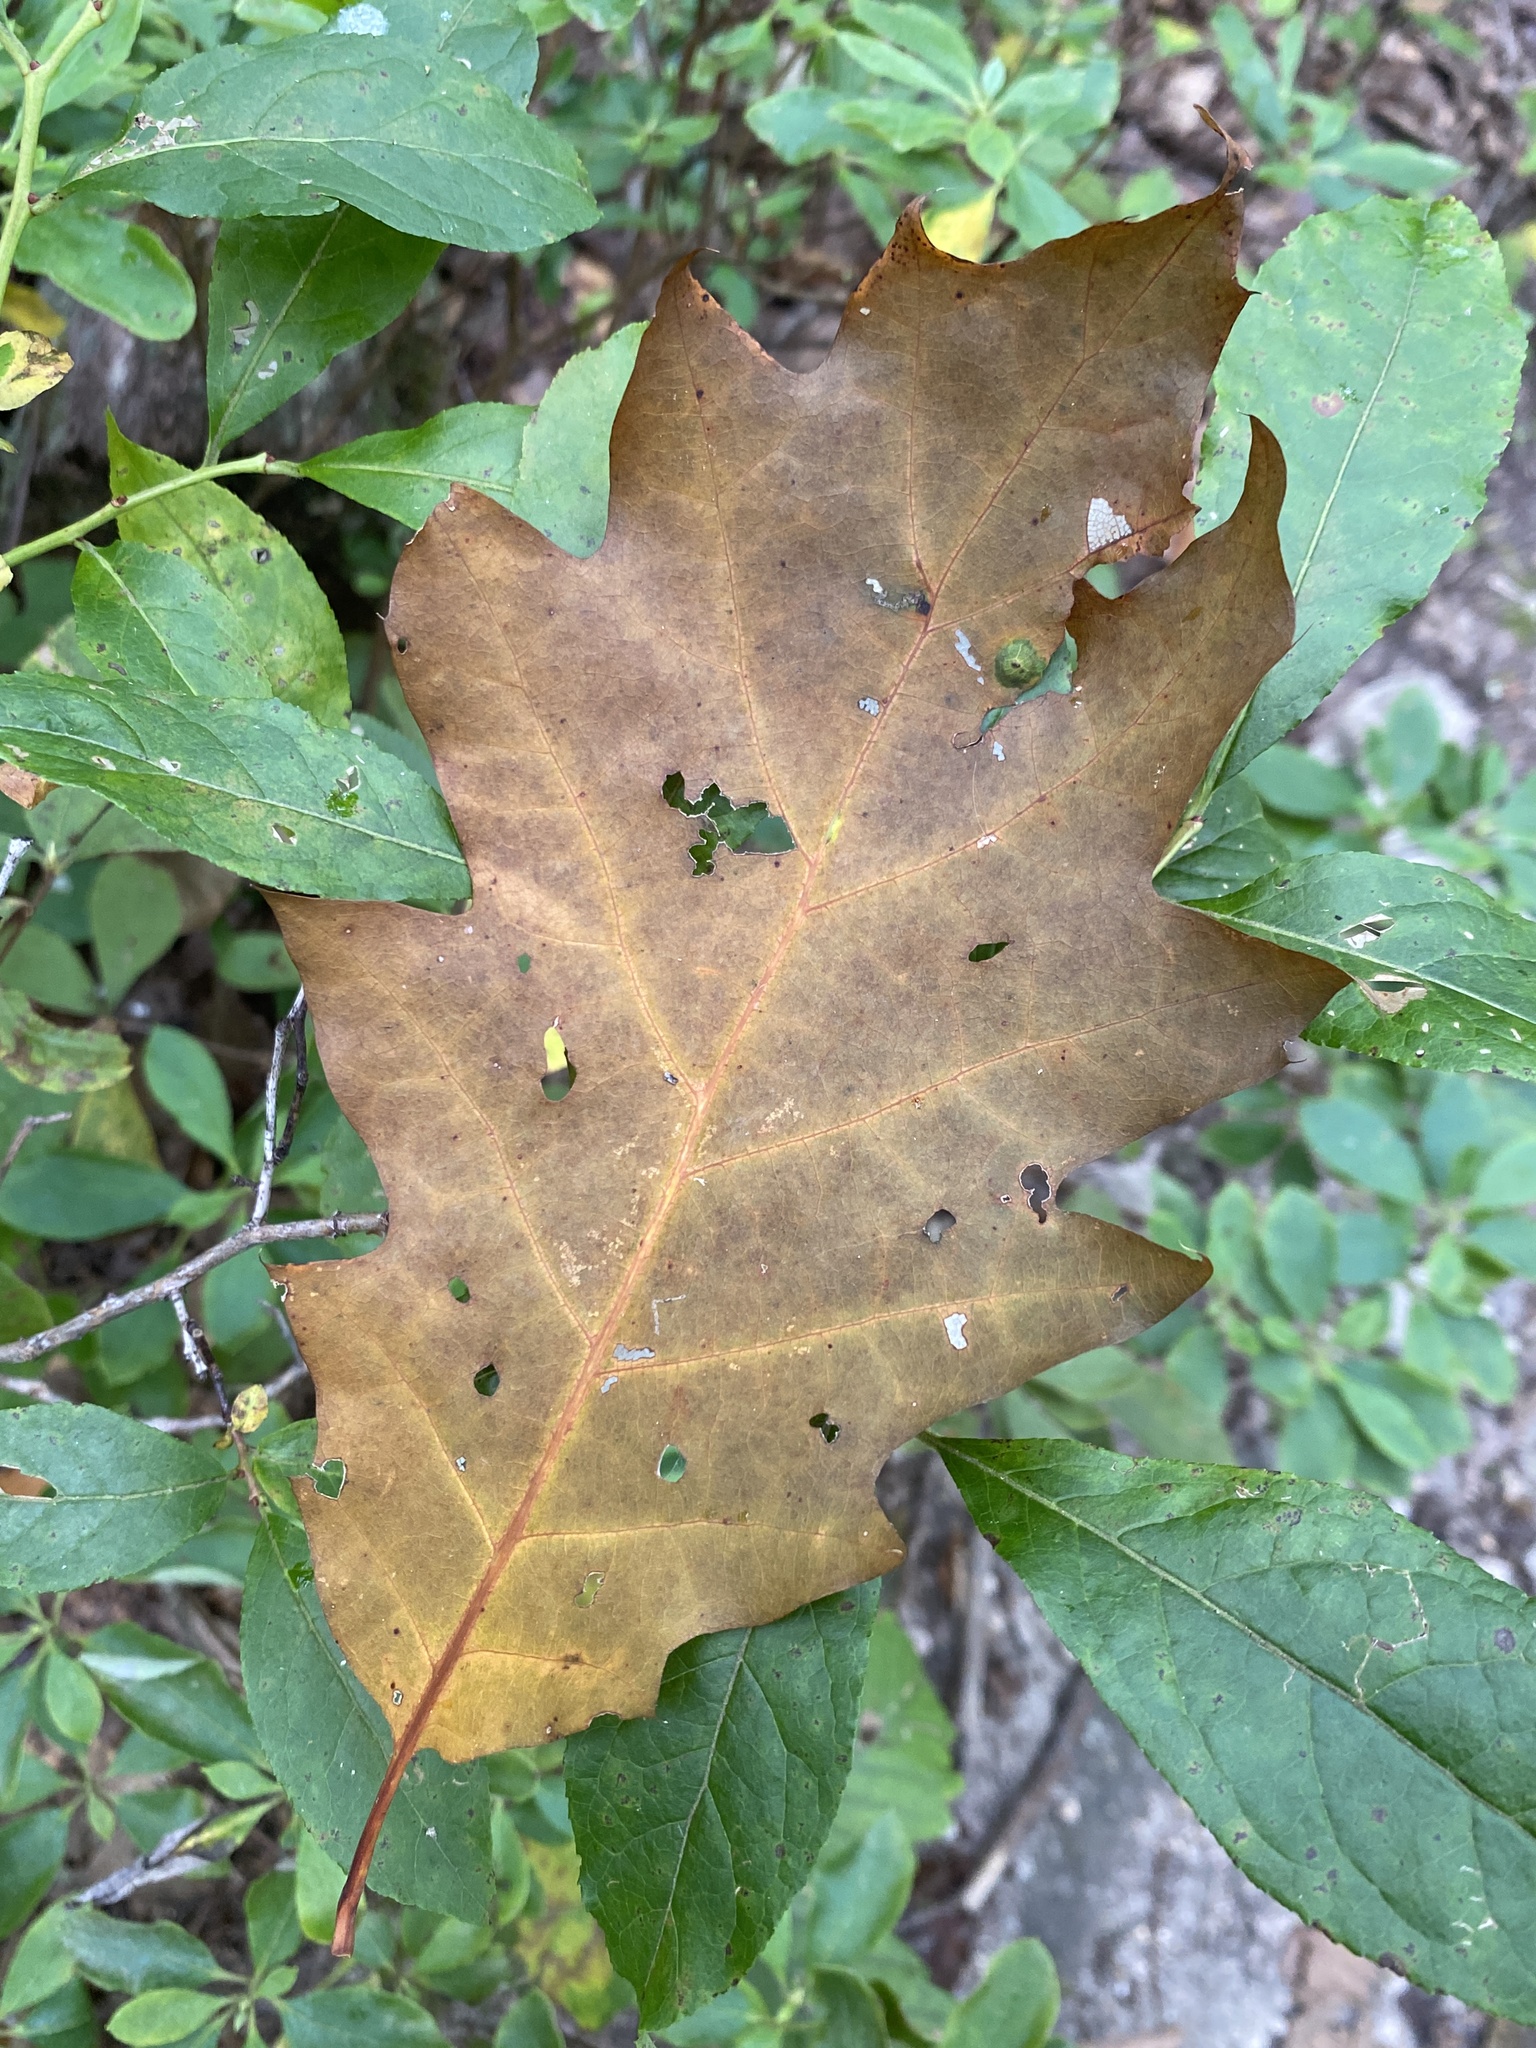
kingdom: Plantae
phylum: Tracheophyta
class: Magnoliopsida
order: Fagales
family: Fagaceae
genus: Quercus
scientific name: Quercus rubra
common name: Red oak
